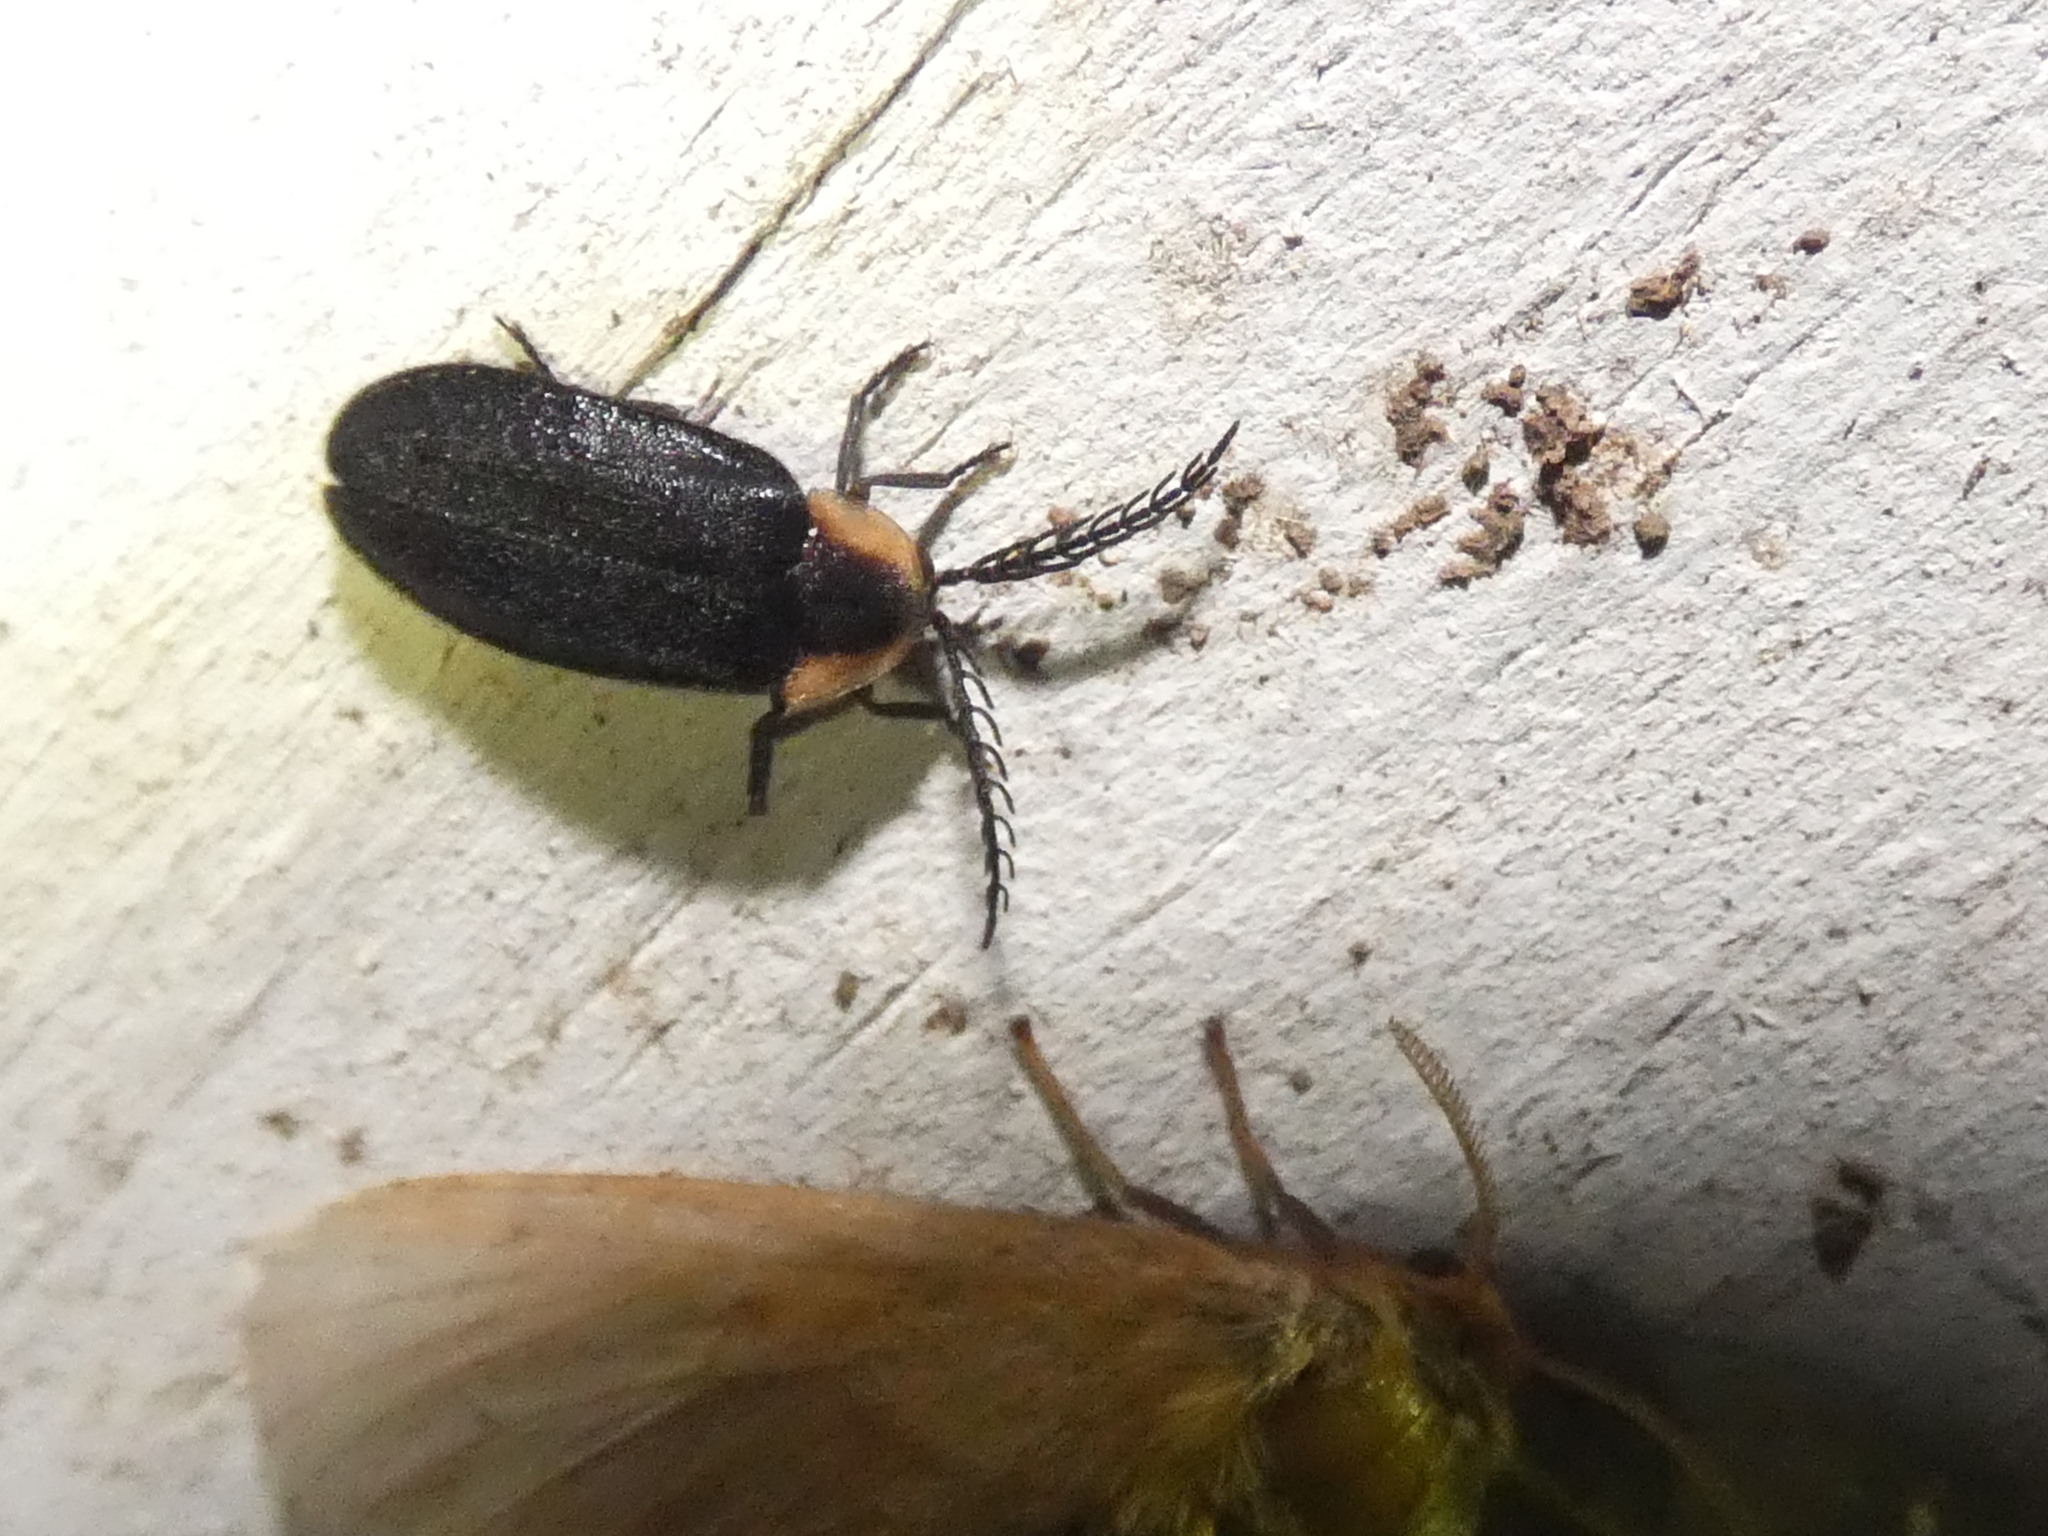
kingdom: Animalia
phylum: Arthropoda
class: Insecta
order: Coleoptera
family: Lampyridae
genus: Pollaclasis
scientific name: Pollaclasis bifaria
